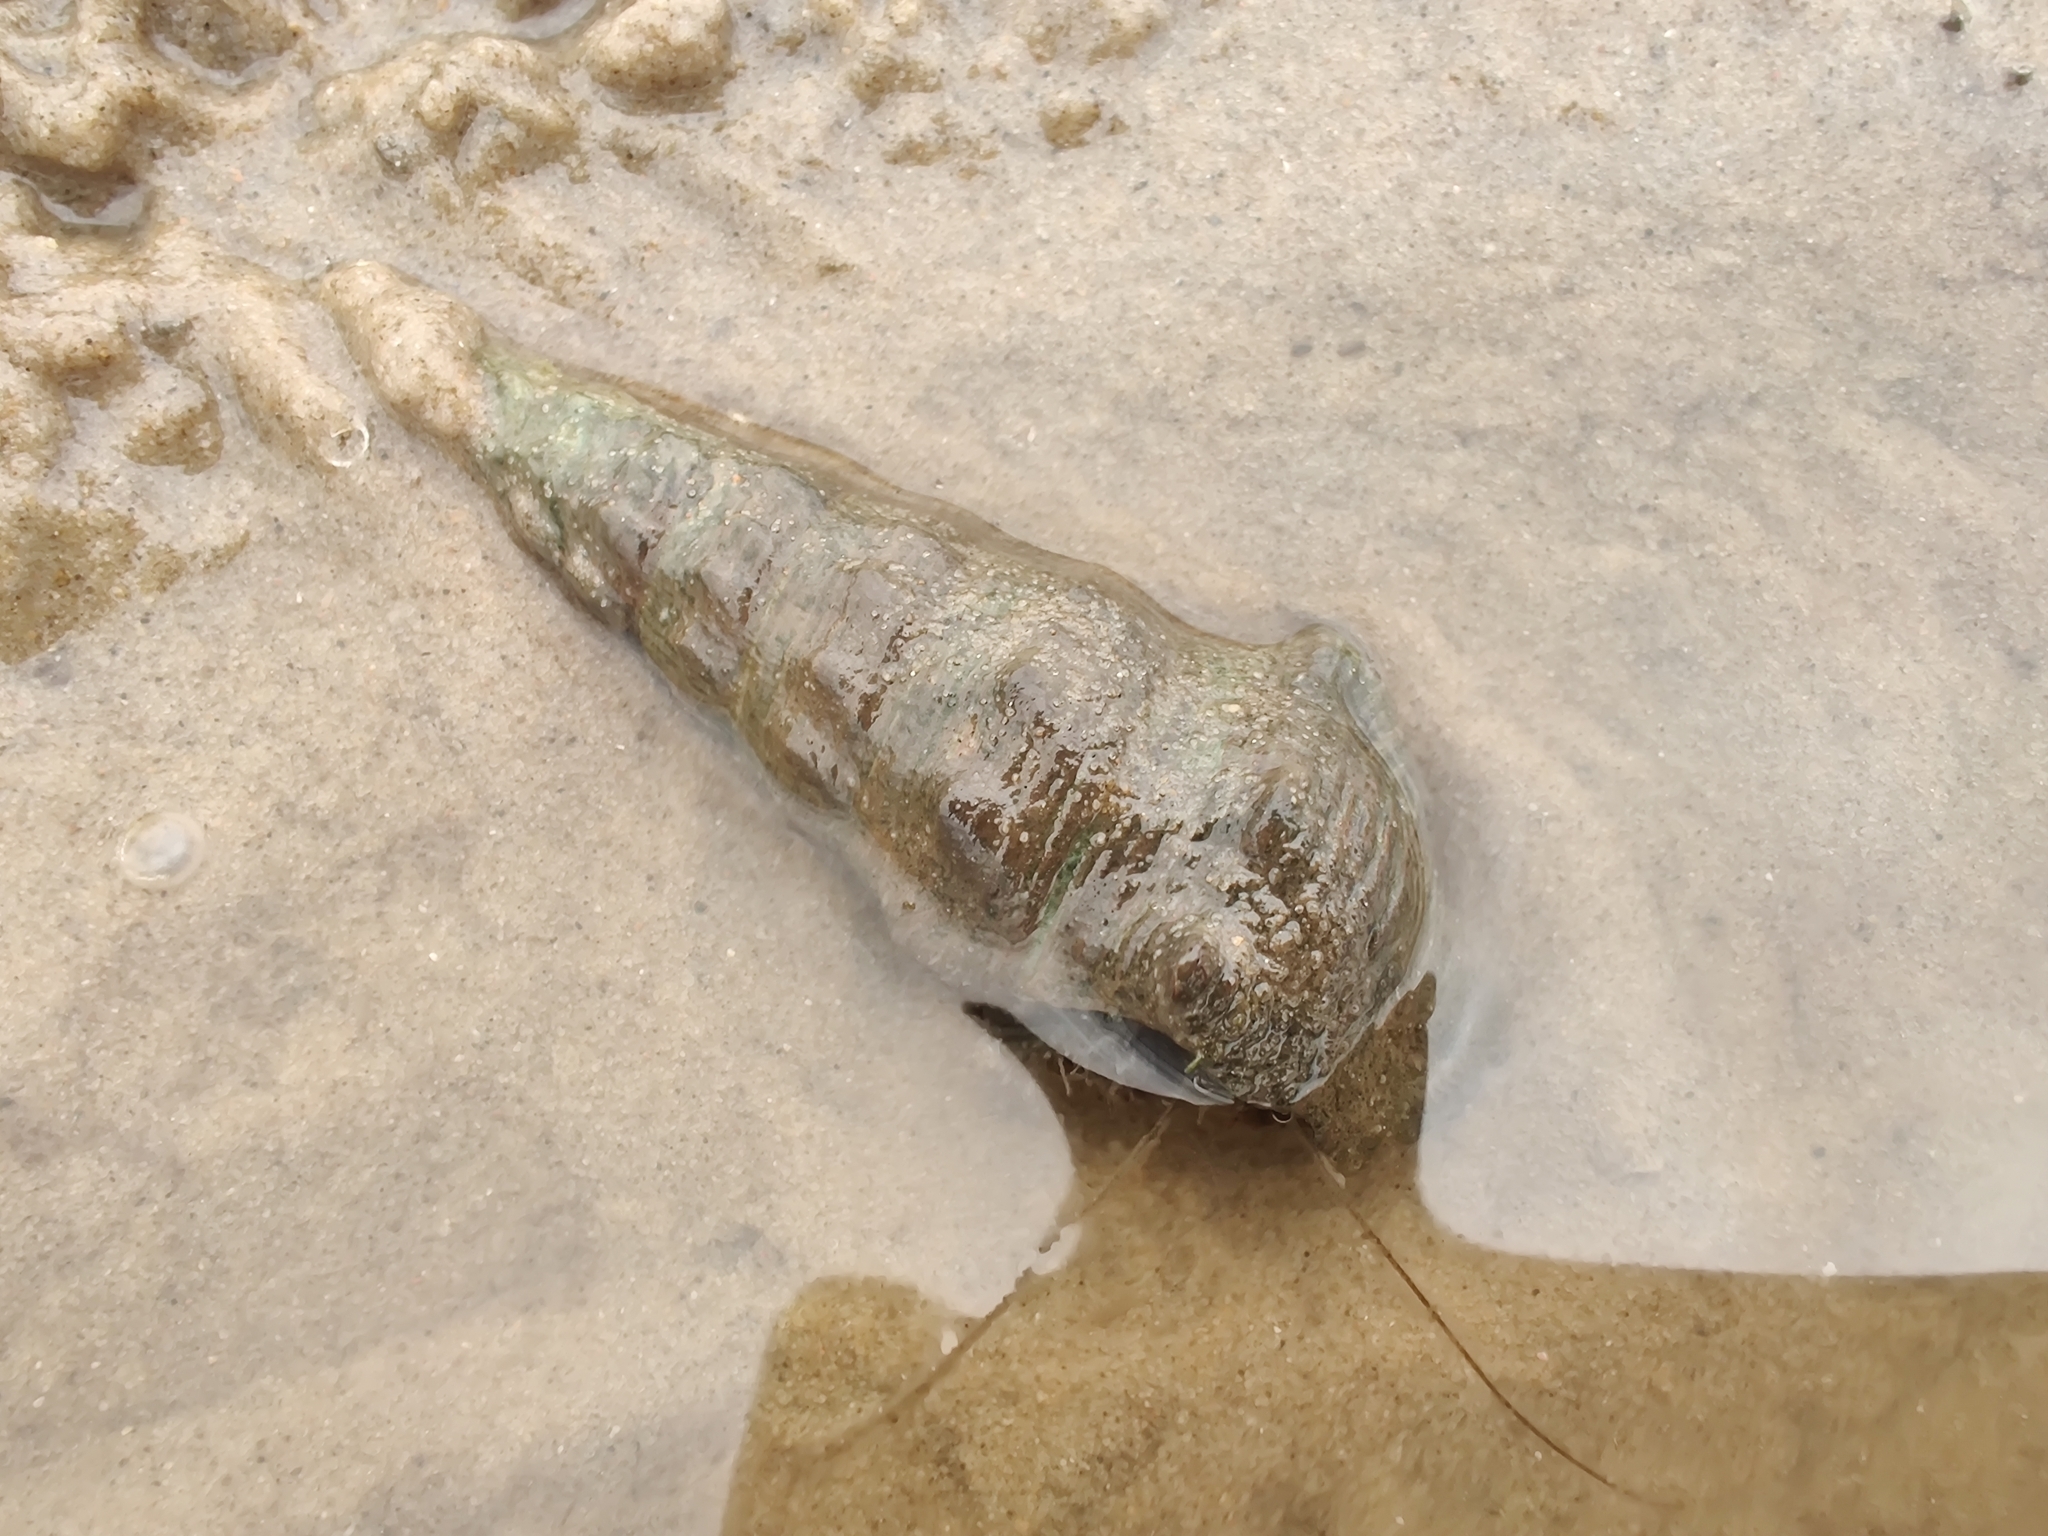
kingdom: Animalia
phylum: Arthropoda
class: Malacostraca
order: Decapoda
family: Diogenidae
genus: Clibanarius
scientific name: Clibanarius longitarsus
